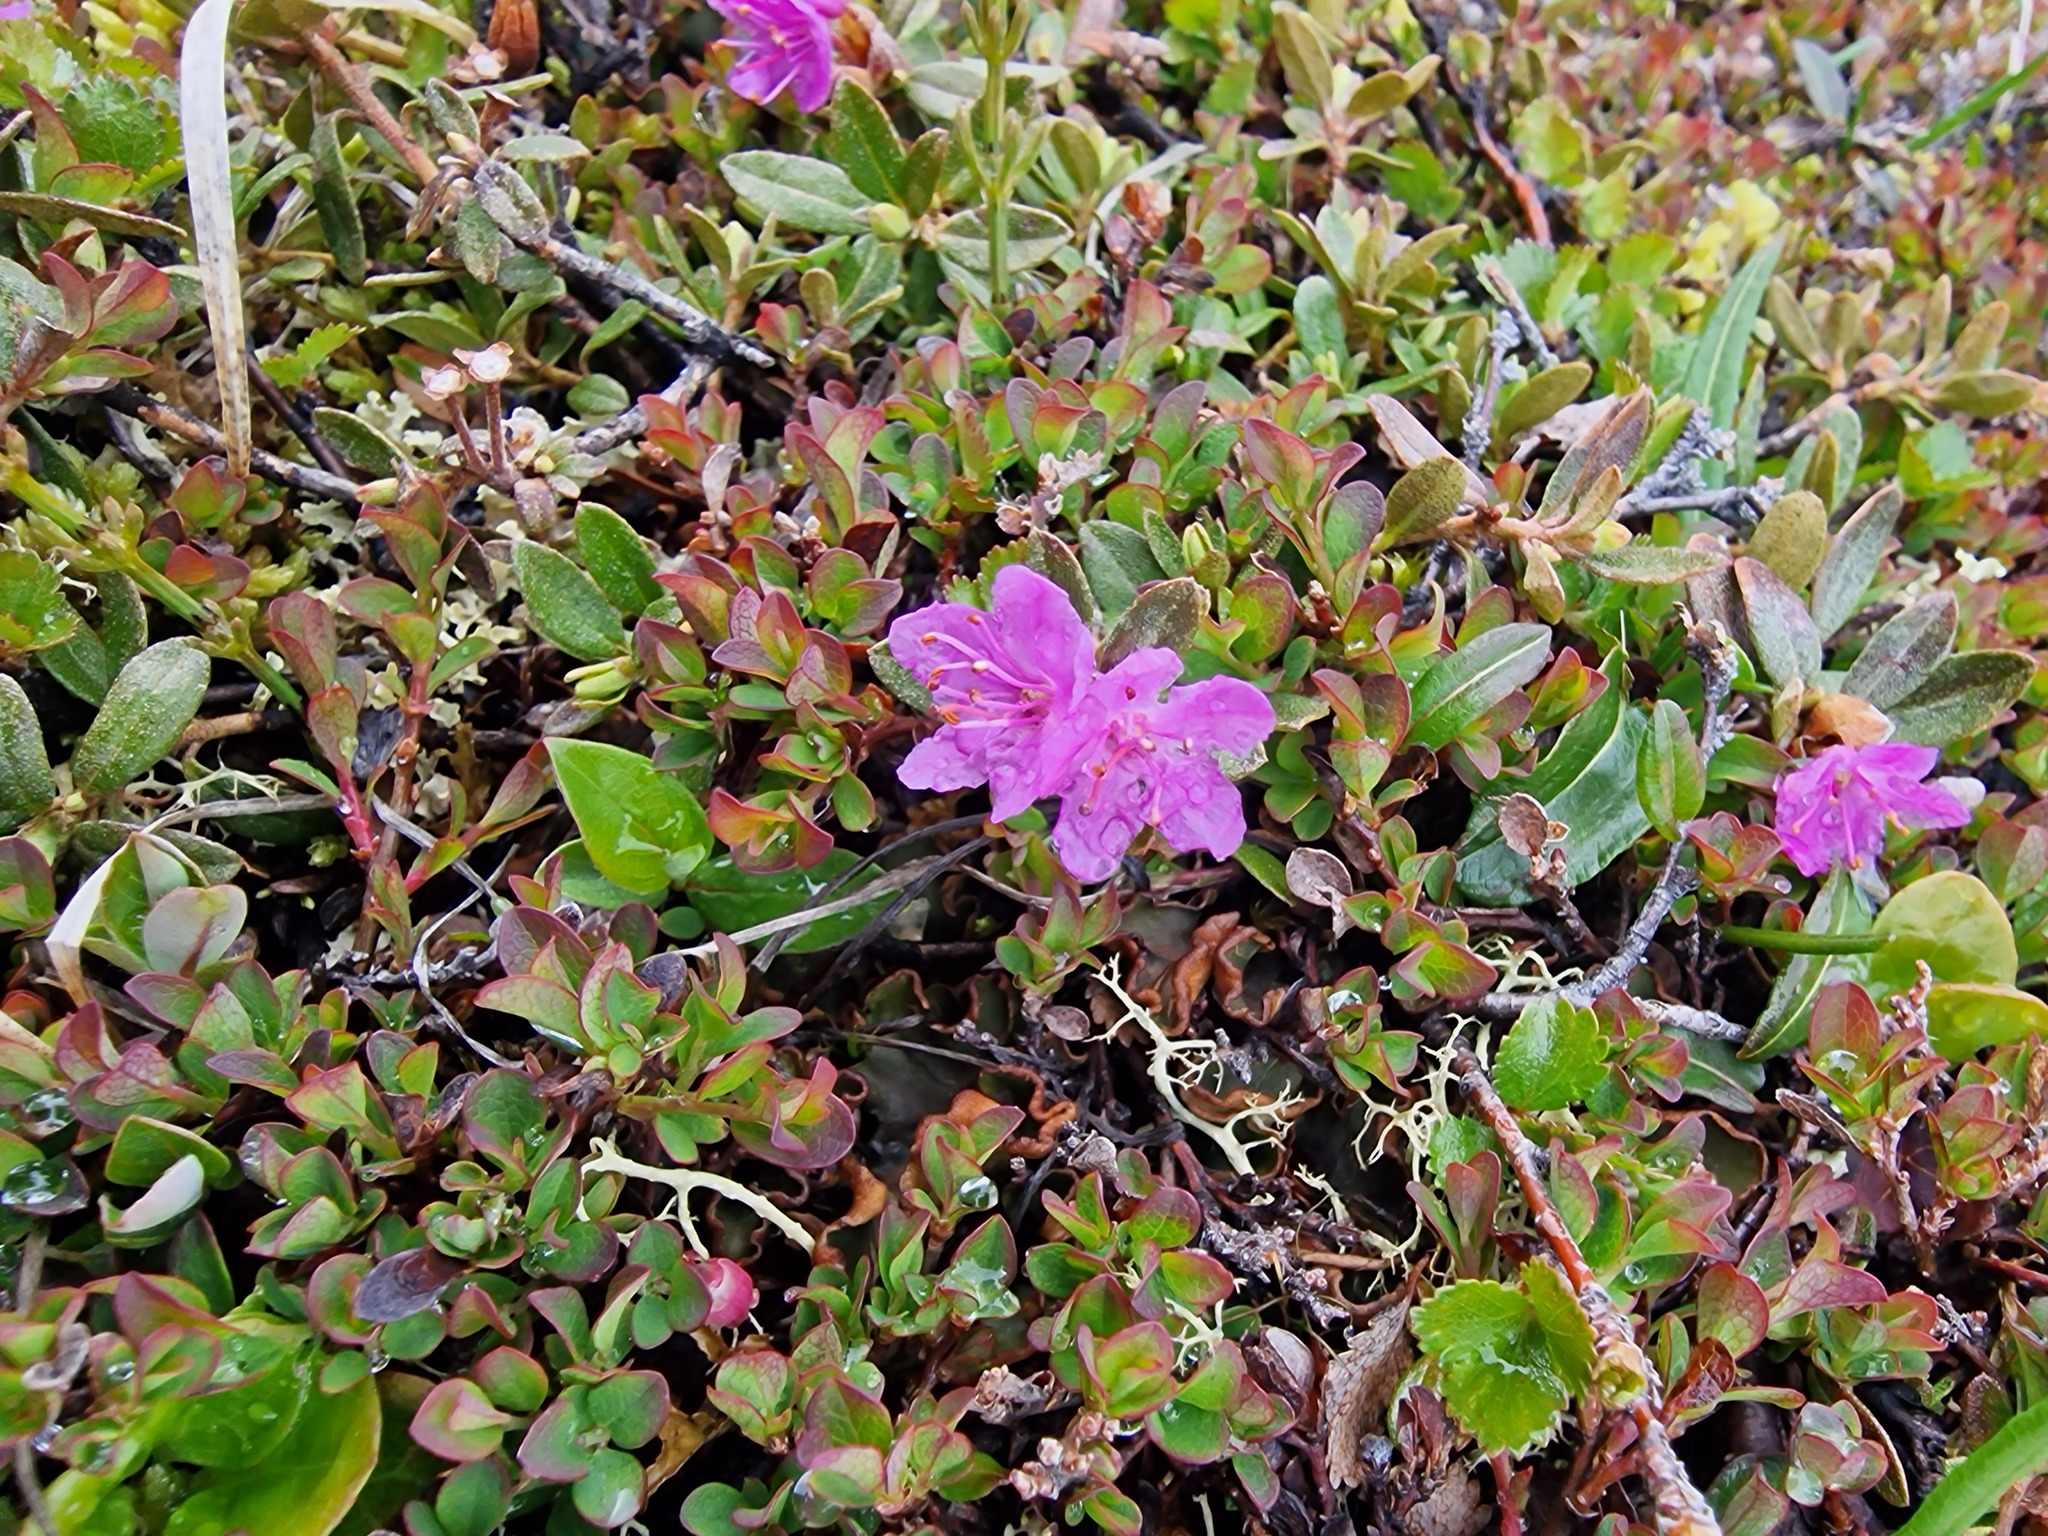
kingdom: Plantae
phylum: Tracheophyta
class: Magnoliopsida
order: Ericales
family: Ericaceae
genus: Rhododendron
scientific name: Rhododendron lapponicum
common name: Lapland rhododendron
